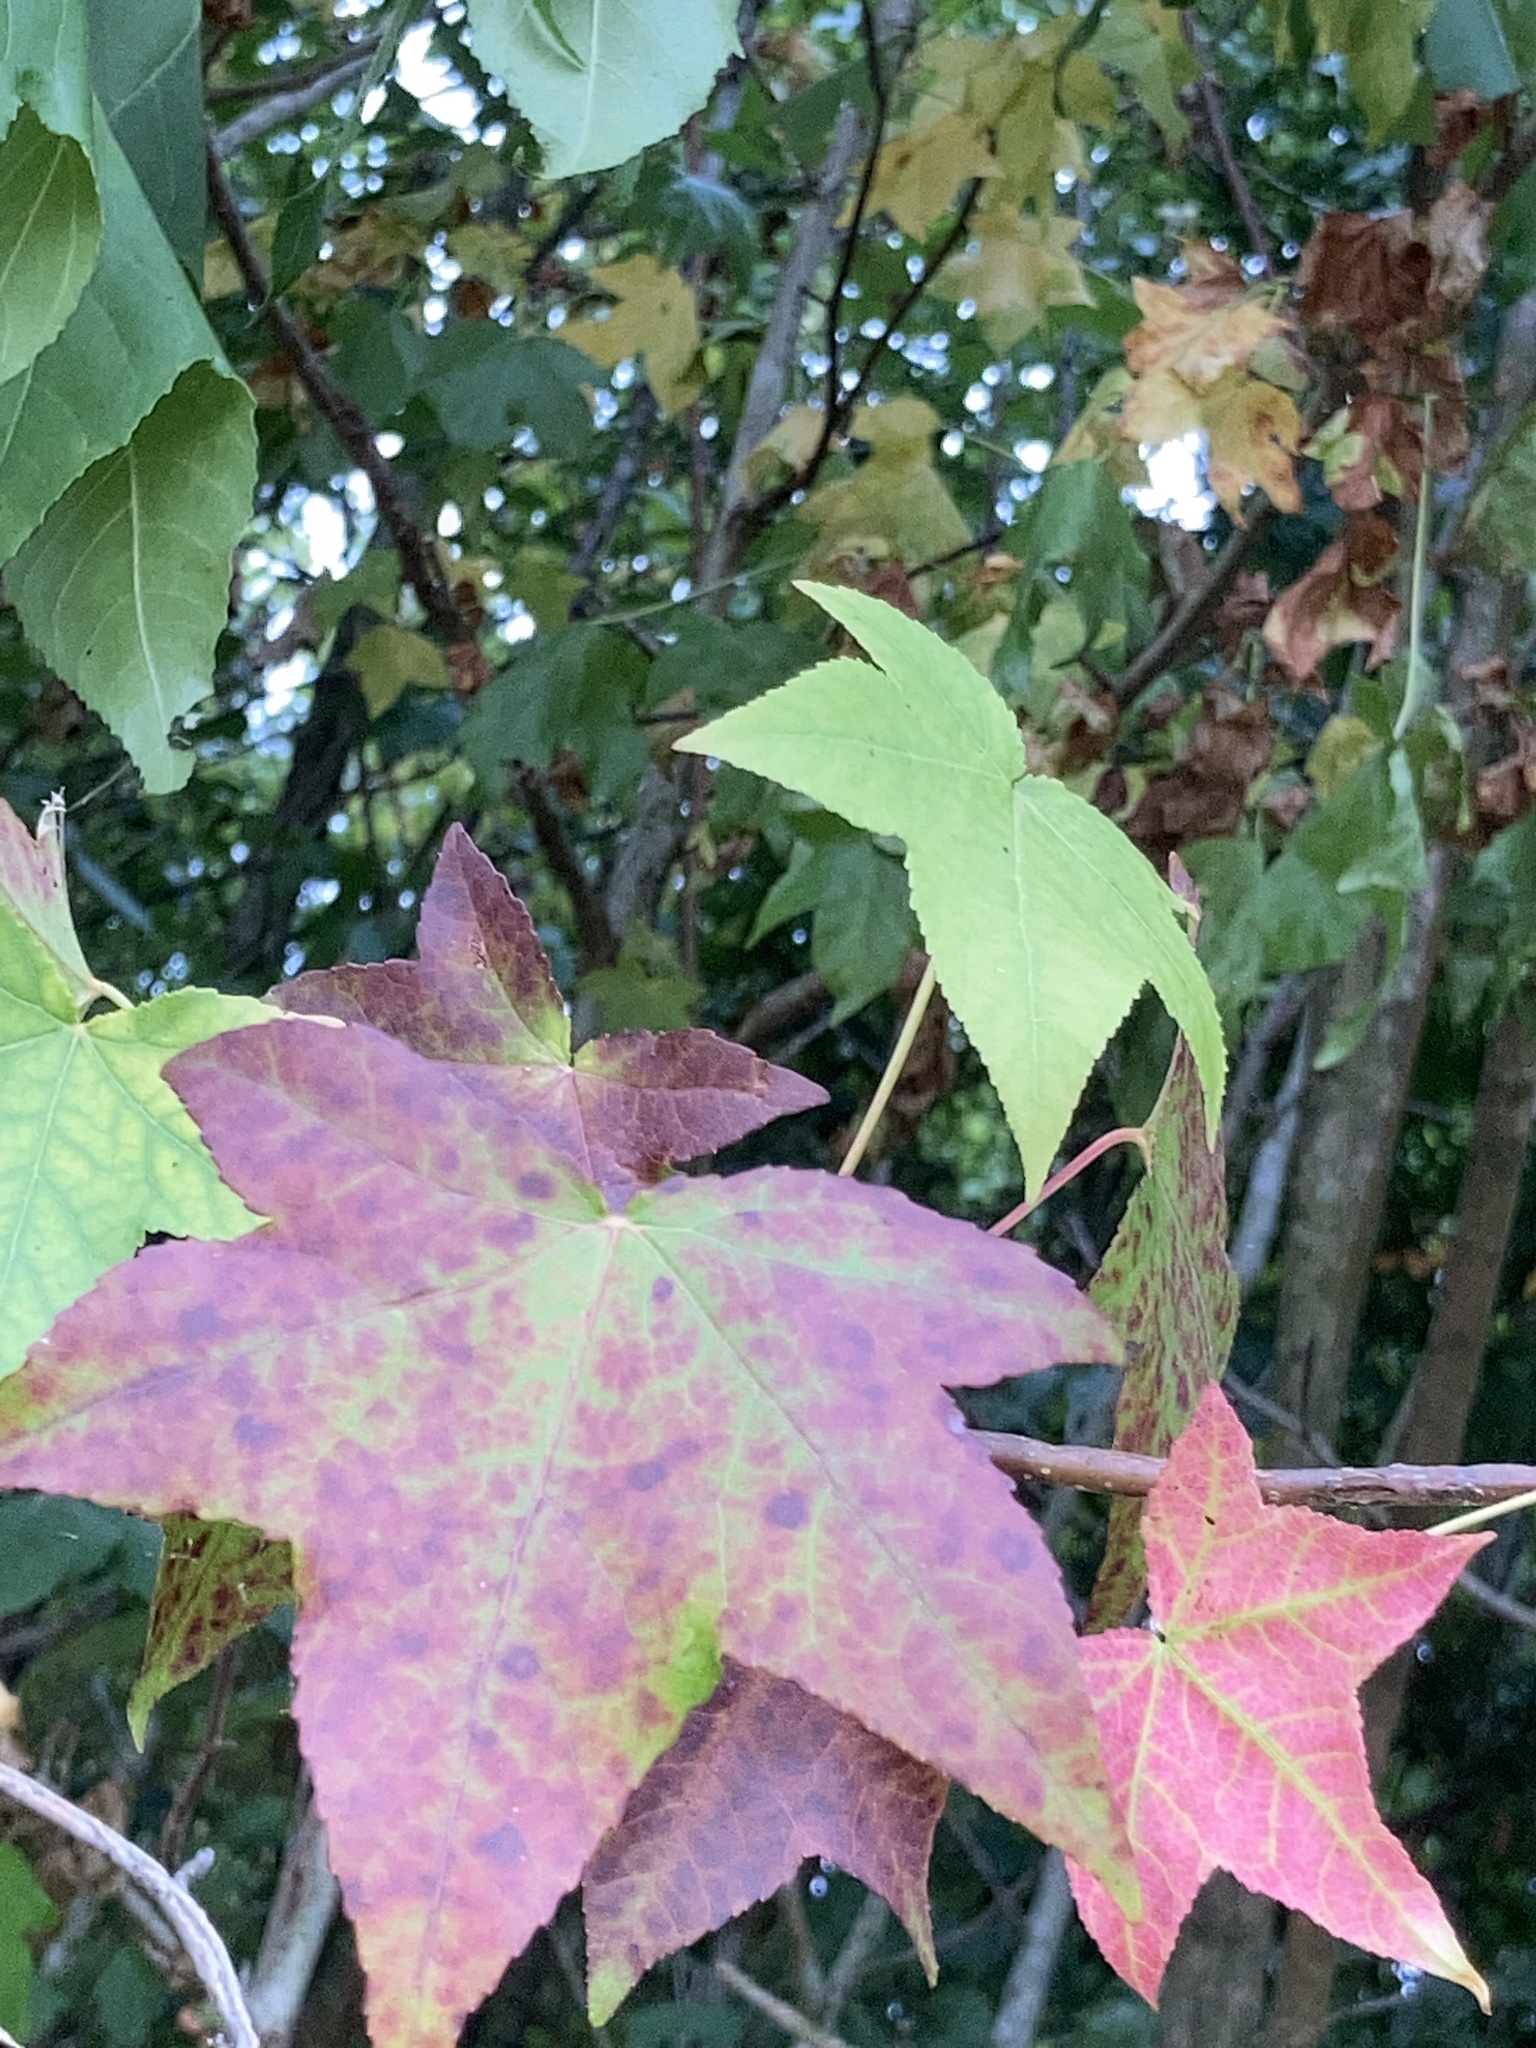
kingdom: Plantae
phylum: Tracheophyta
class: Magnoliopsida
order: Saxifragales
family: Altingiaceae
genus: Liquidambar
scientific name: Liquidambar styraciflua
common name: Sweet gum
